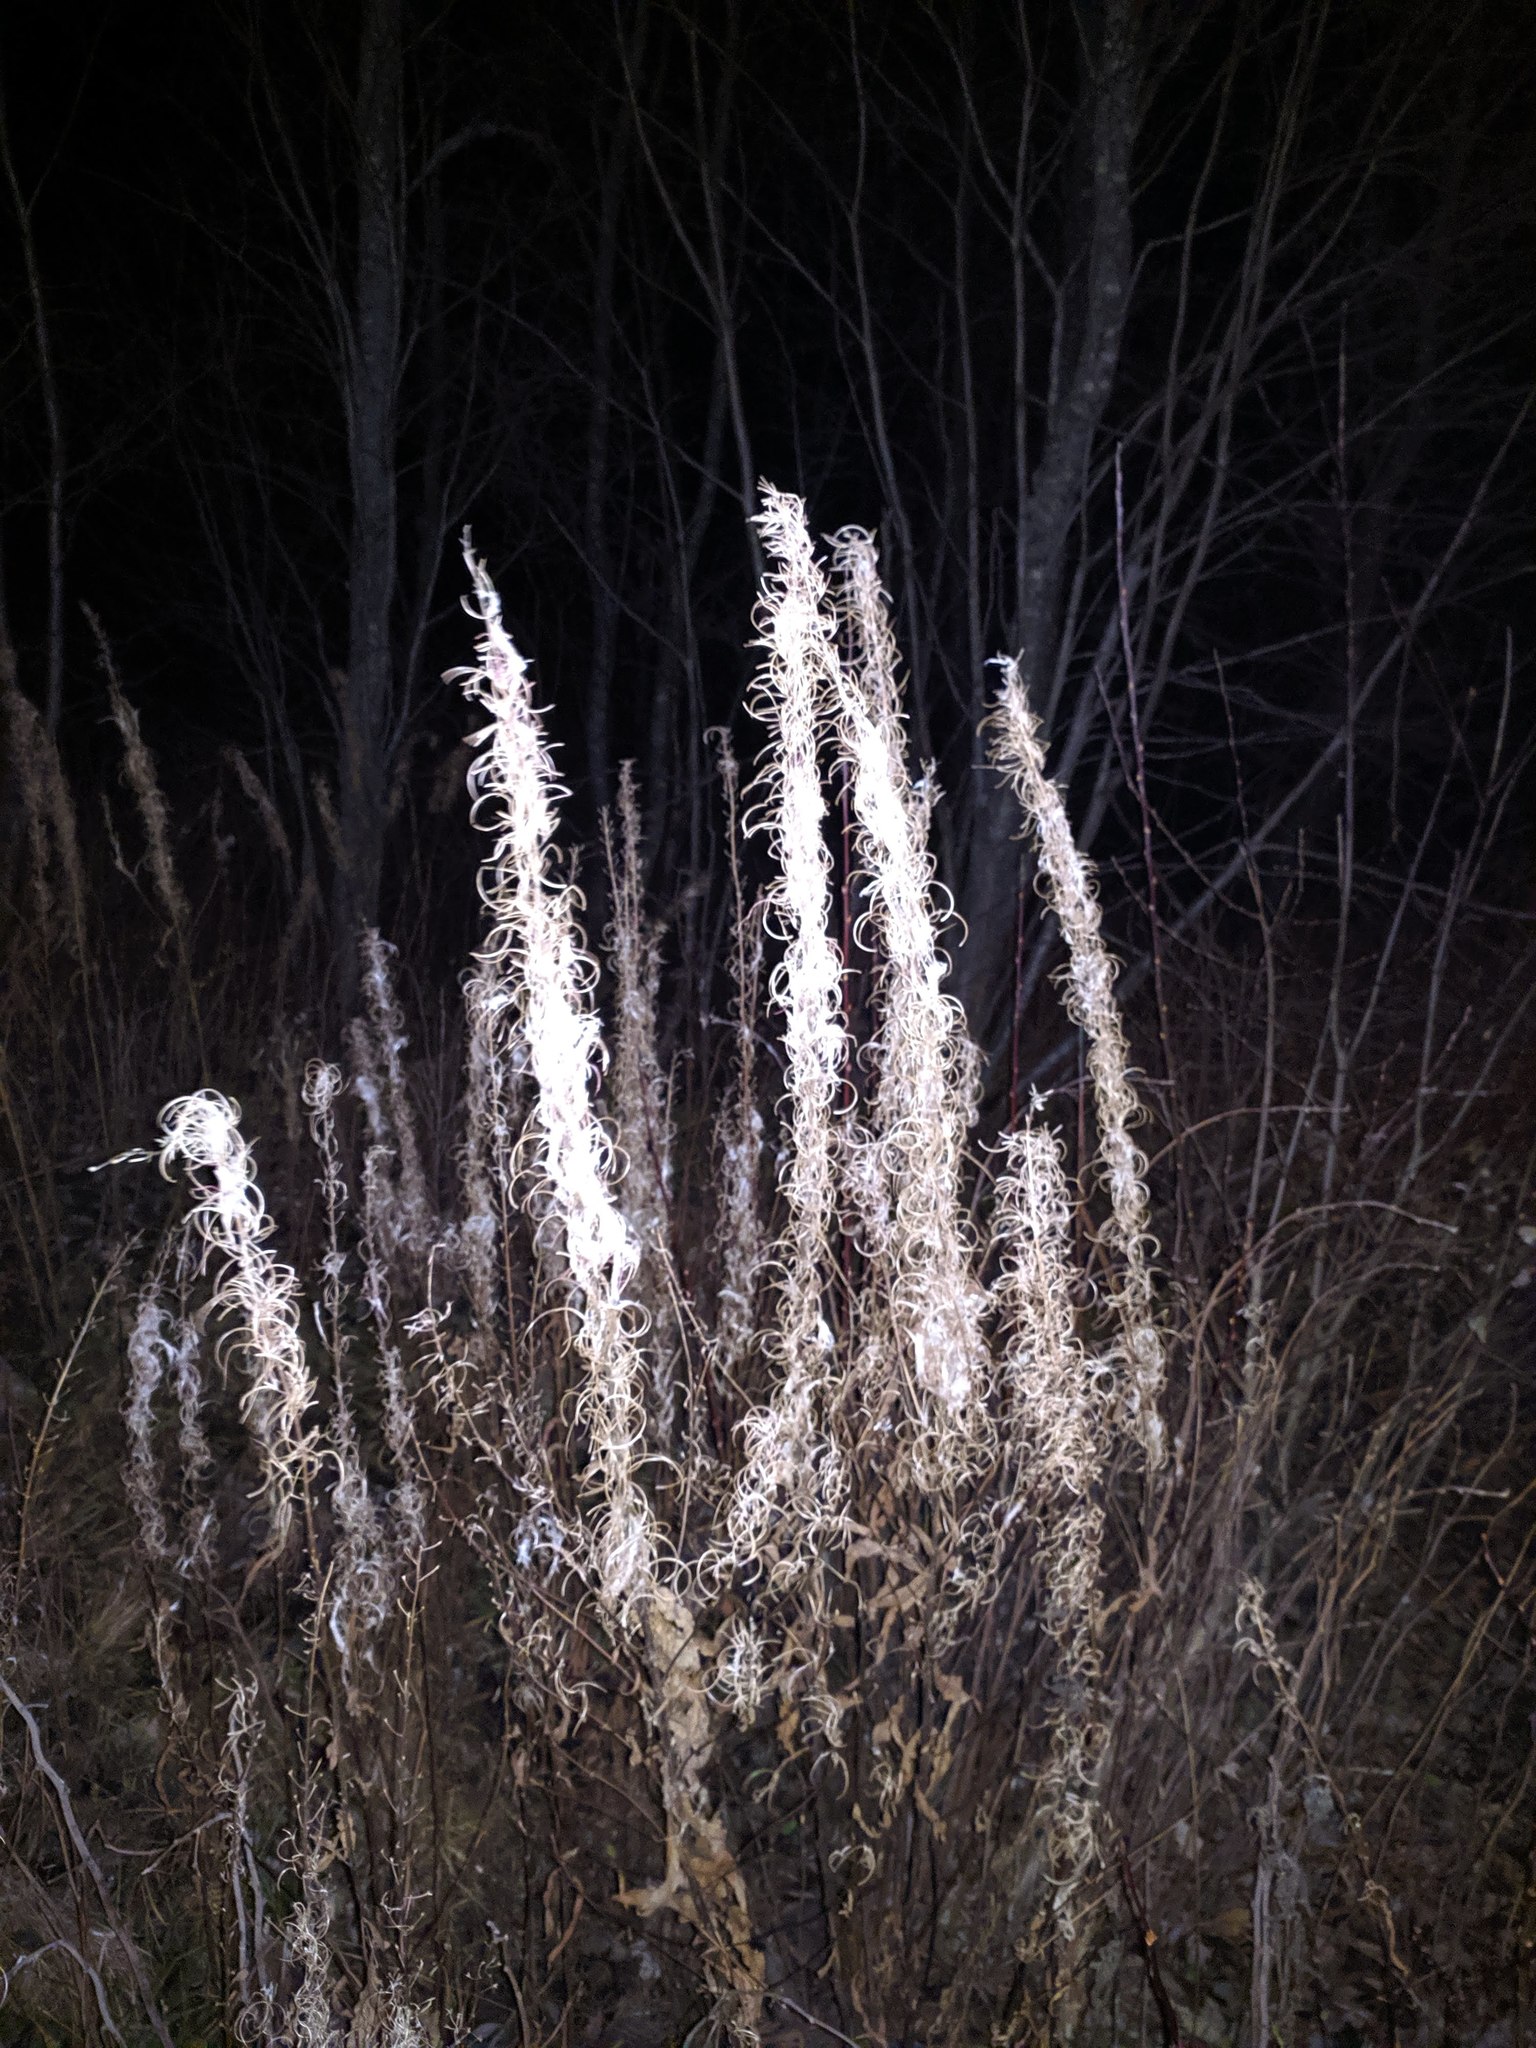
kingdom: Plantae
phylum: Tracheophyta
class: Magnoliopsida
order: Myrtales
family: Onagraceae
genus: Chamaenerion
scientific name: Chamaenerion angustifolium
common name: Fireweed
